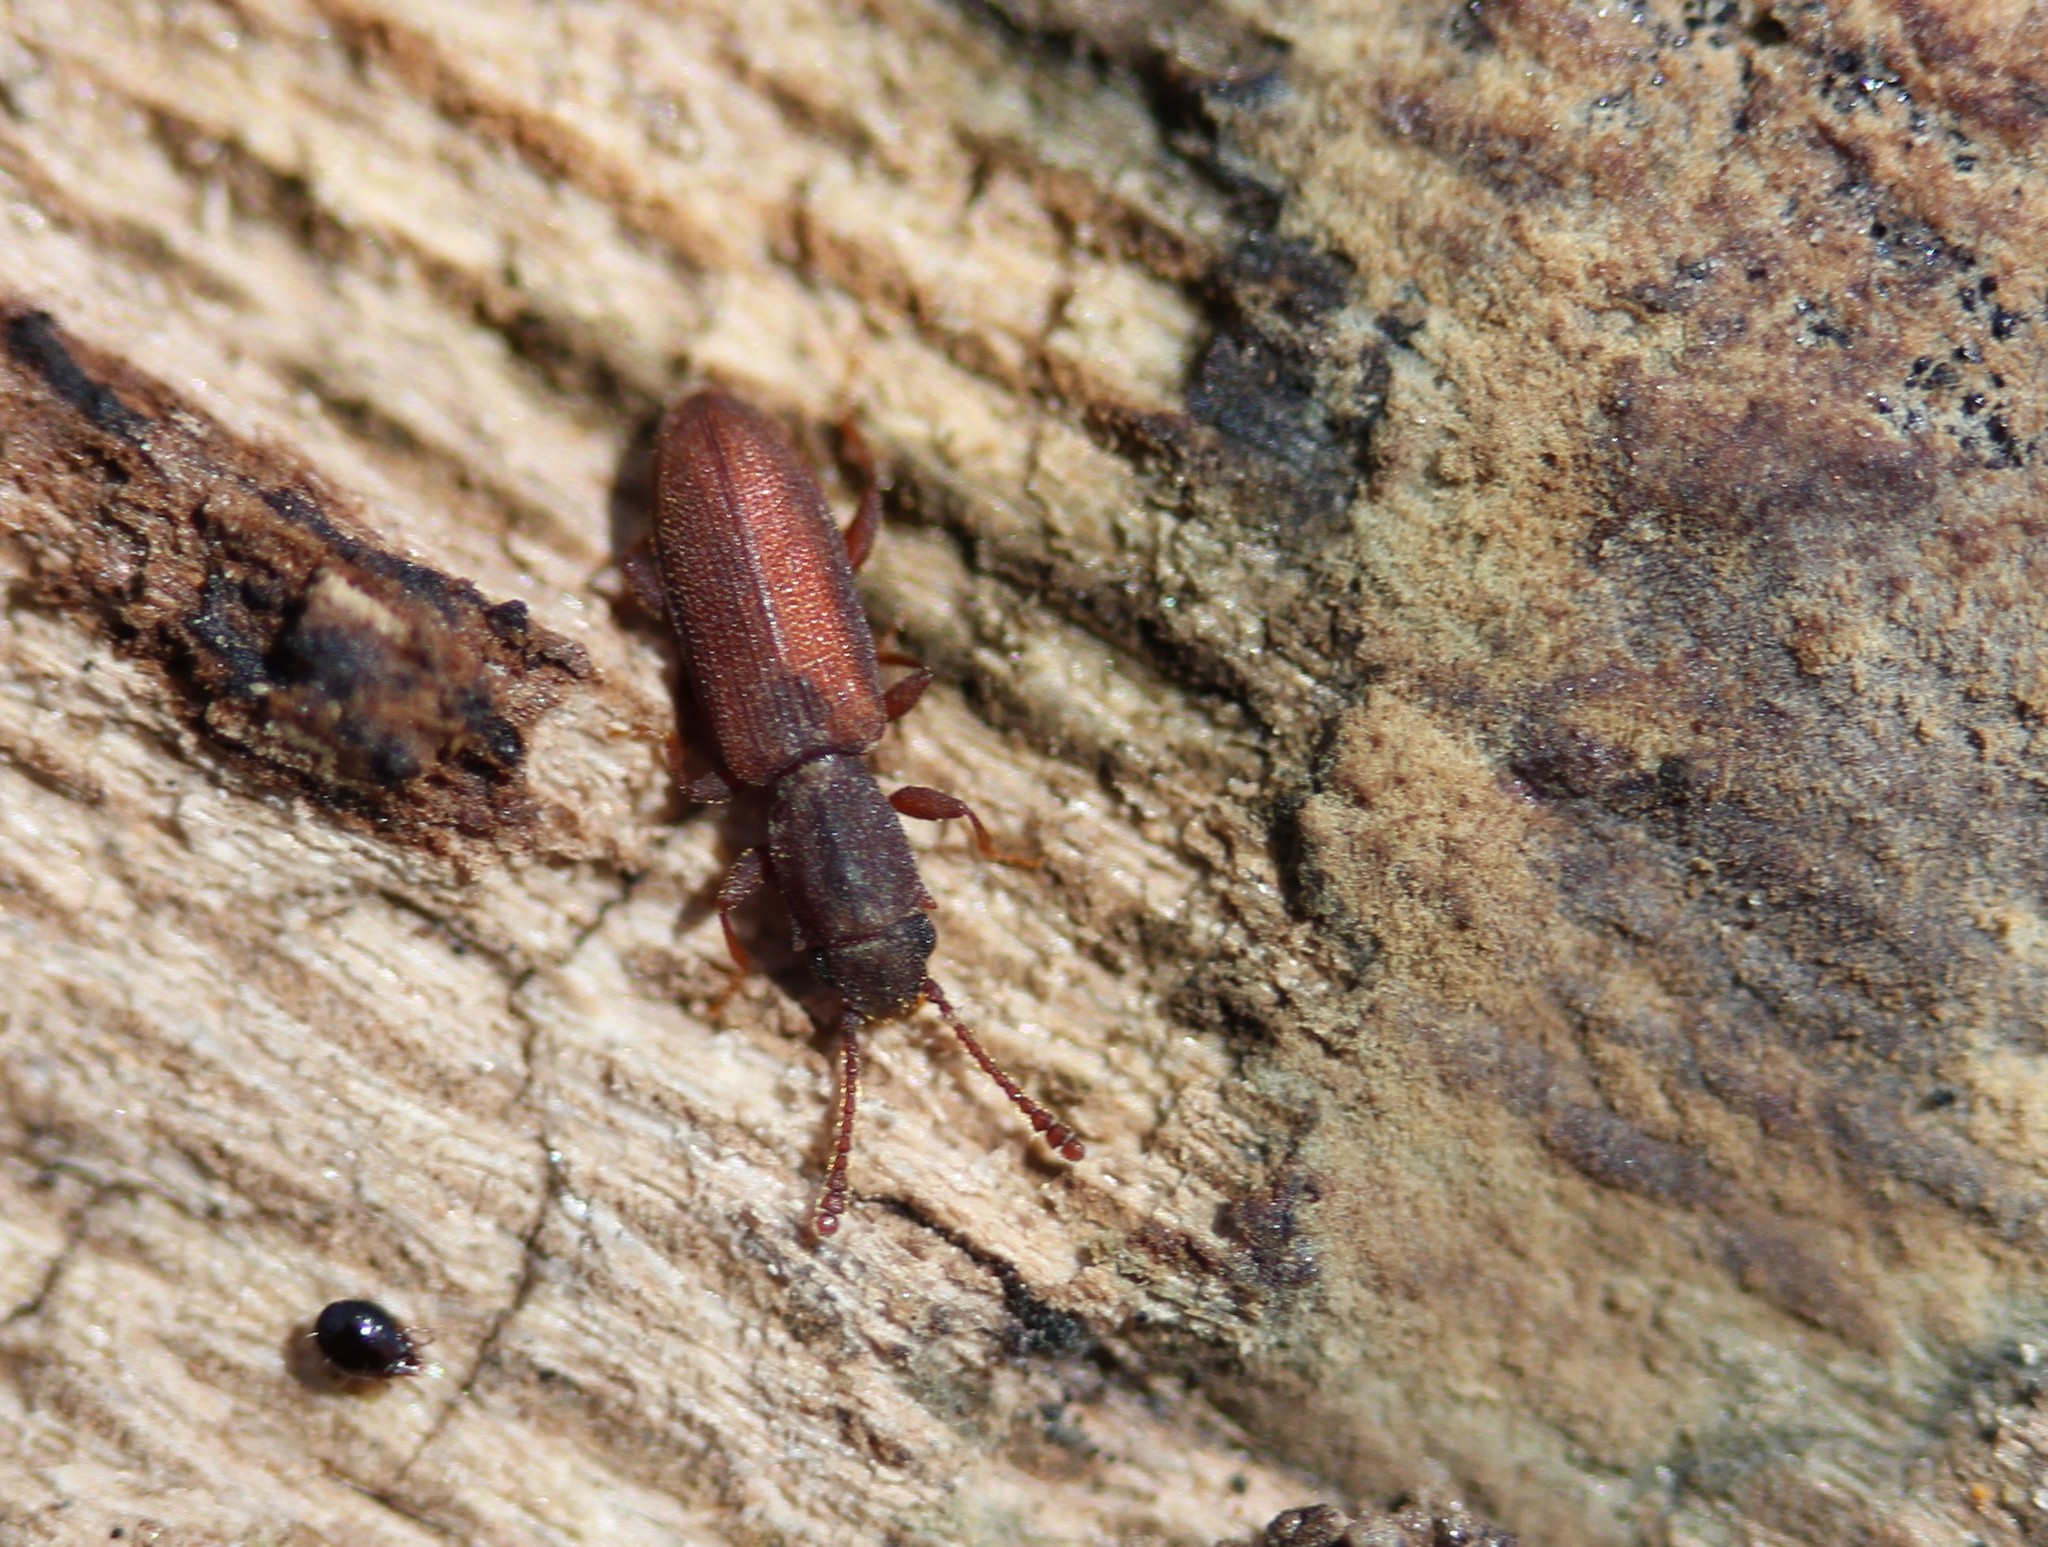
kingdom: Animalia
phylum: Arthropoda
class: Insecta
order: Coleoptera
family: Silvanidae
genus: Silvanus
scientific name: Silvanus muticus
